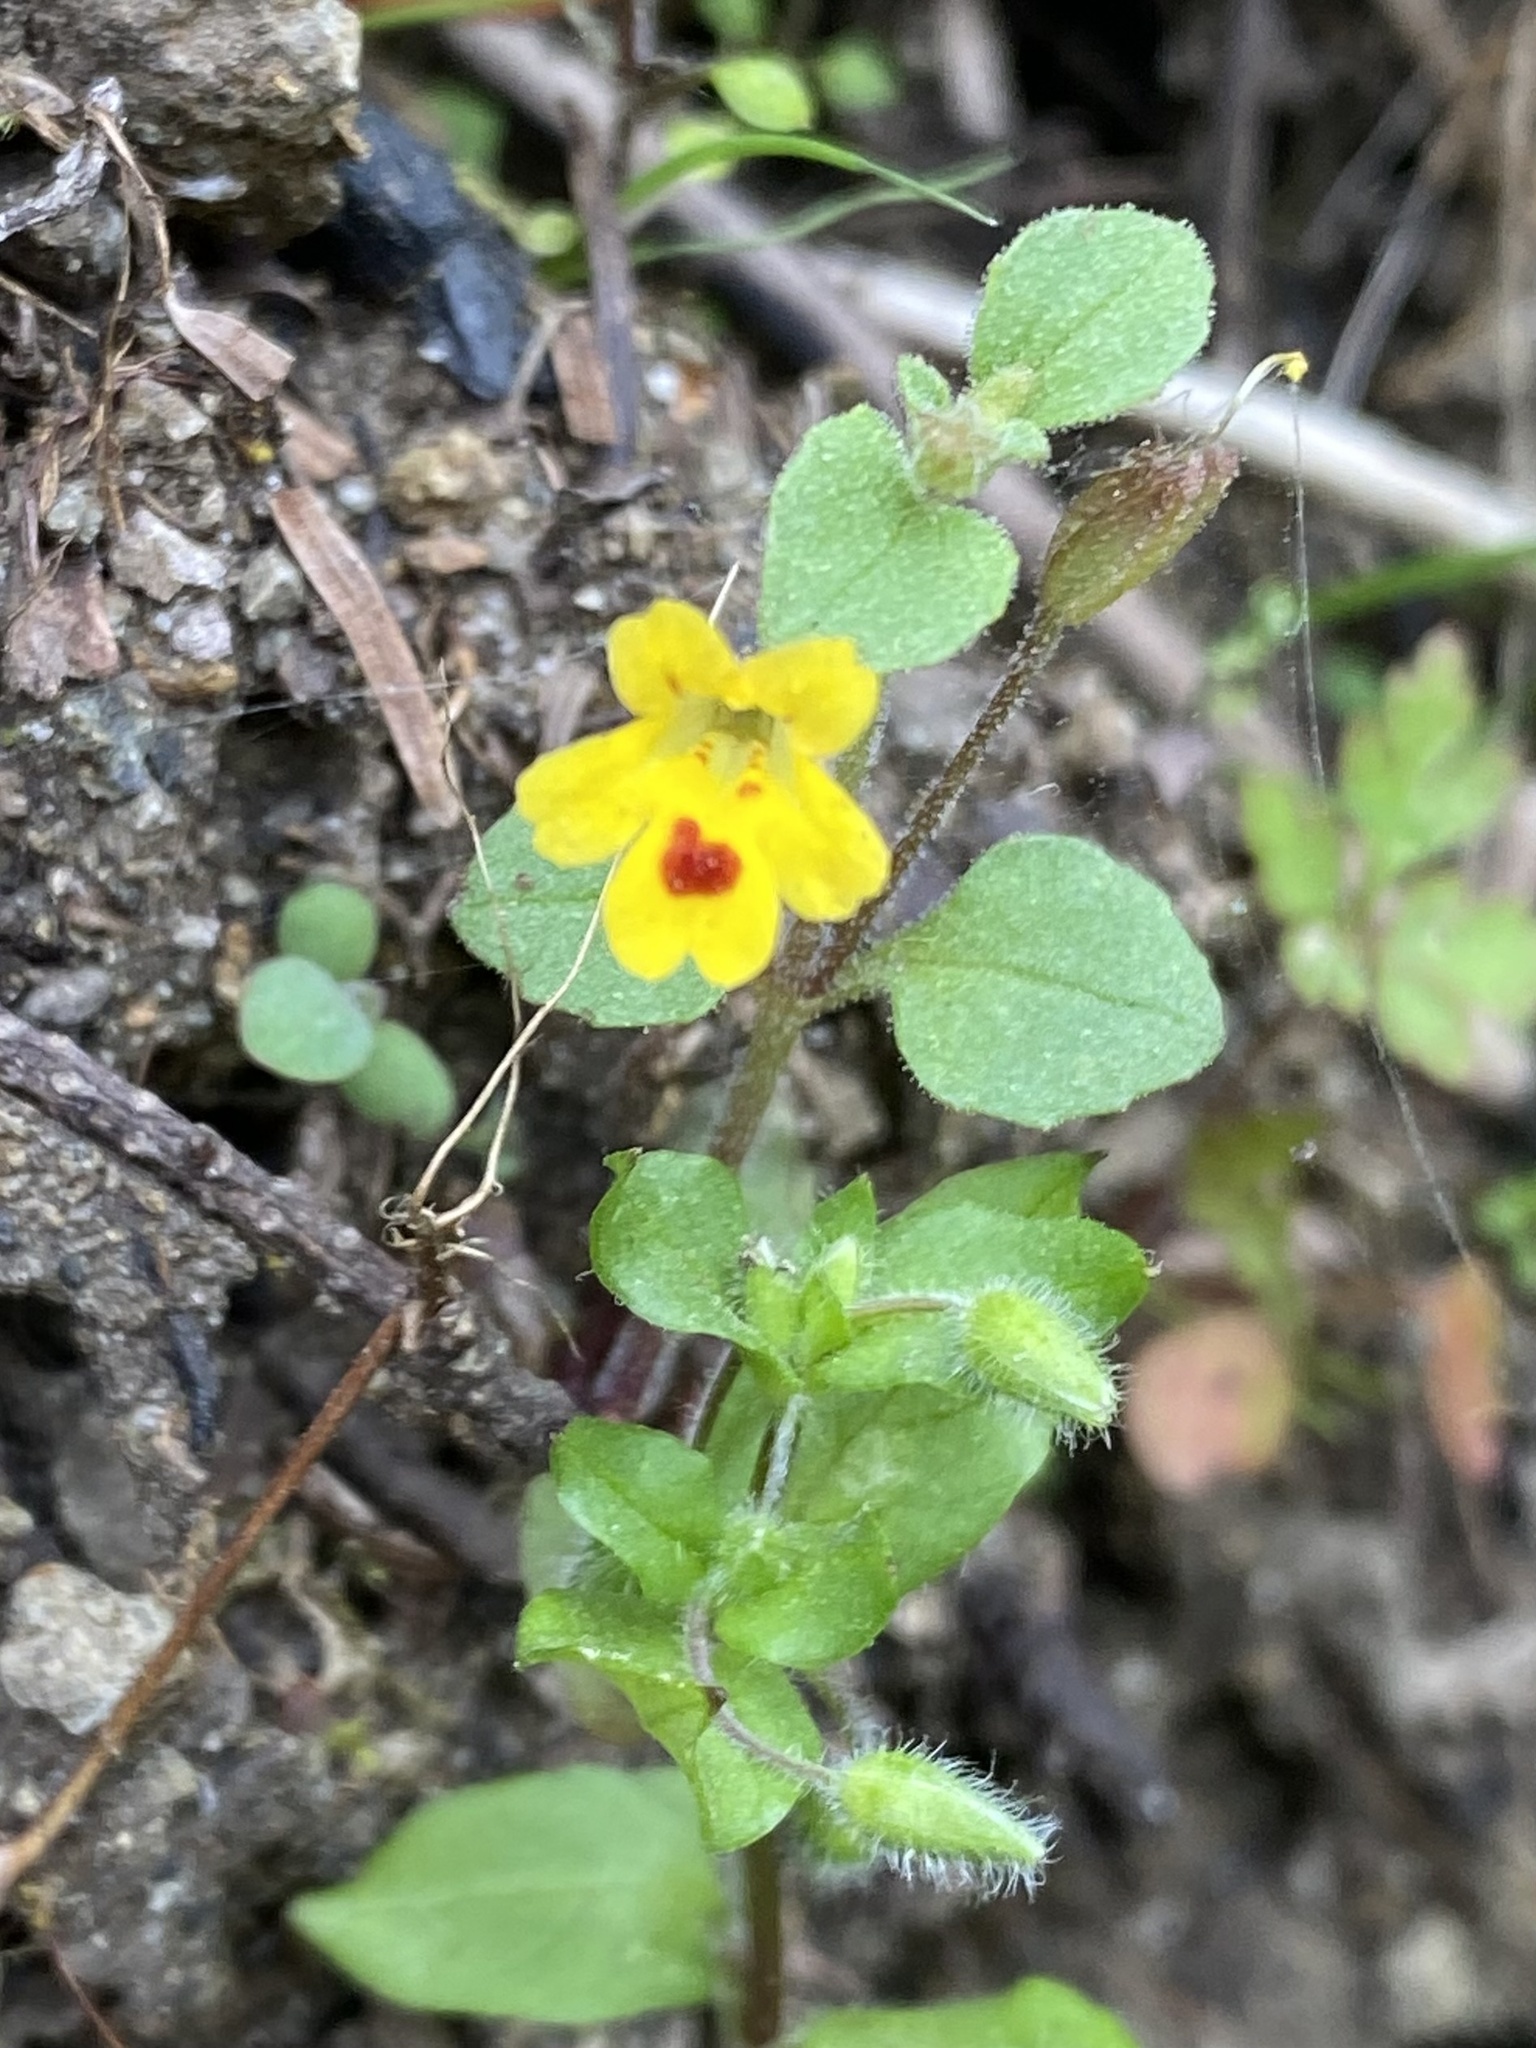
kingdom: Plantae
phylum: Tracheophyta
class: Magnoliopsida
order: Lamiales
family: Phrymaceae
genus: Erythranthe
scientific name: Erythranthe alsinoides
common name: Chickweed monkeyflower
